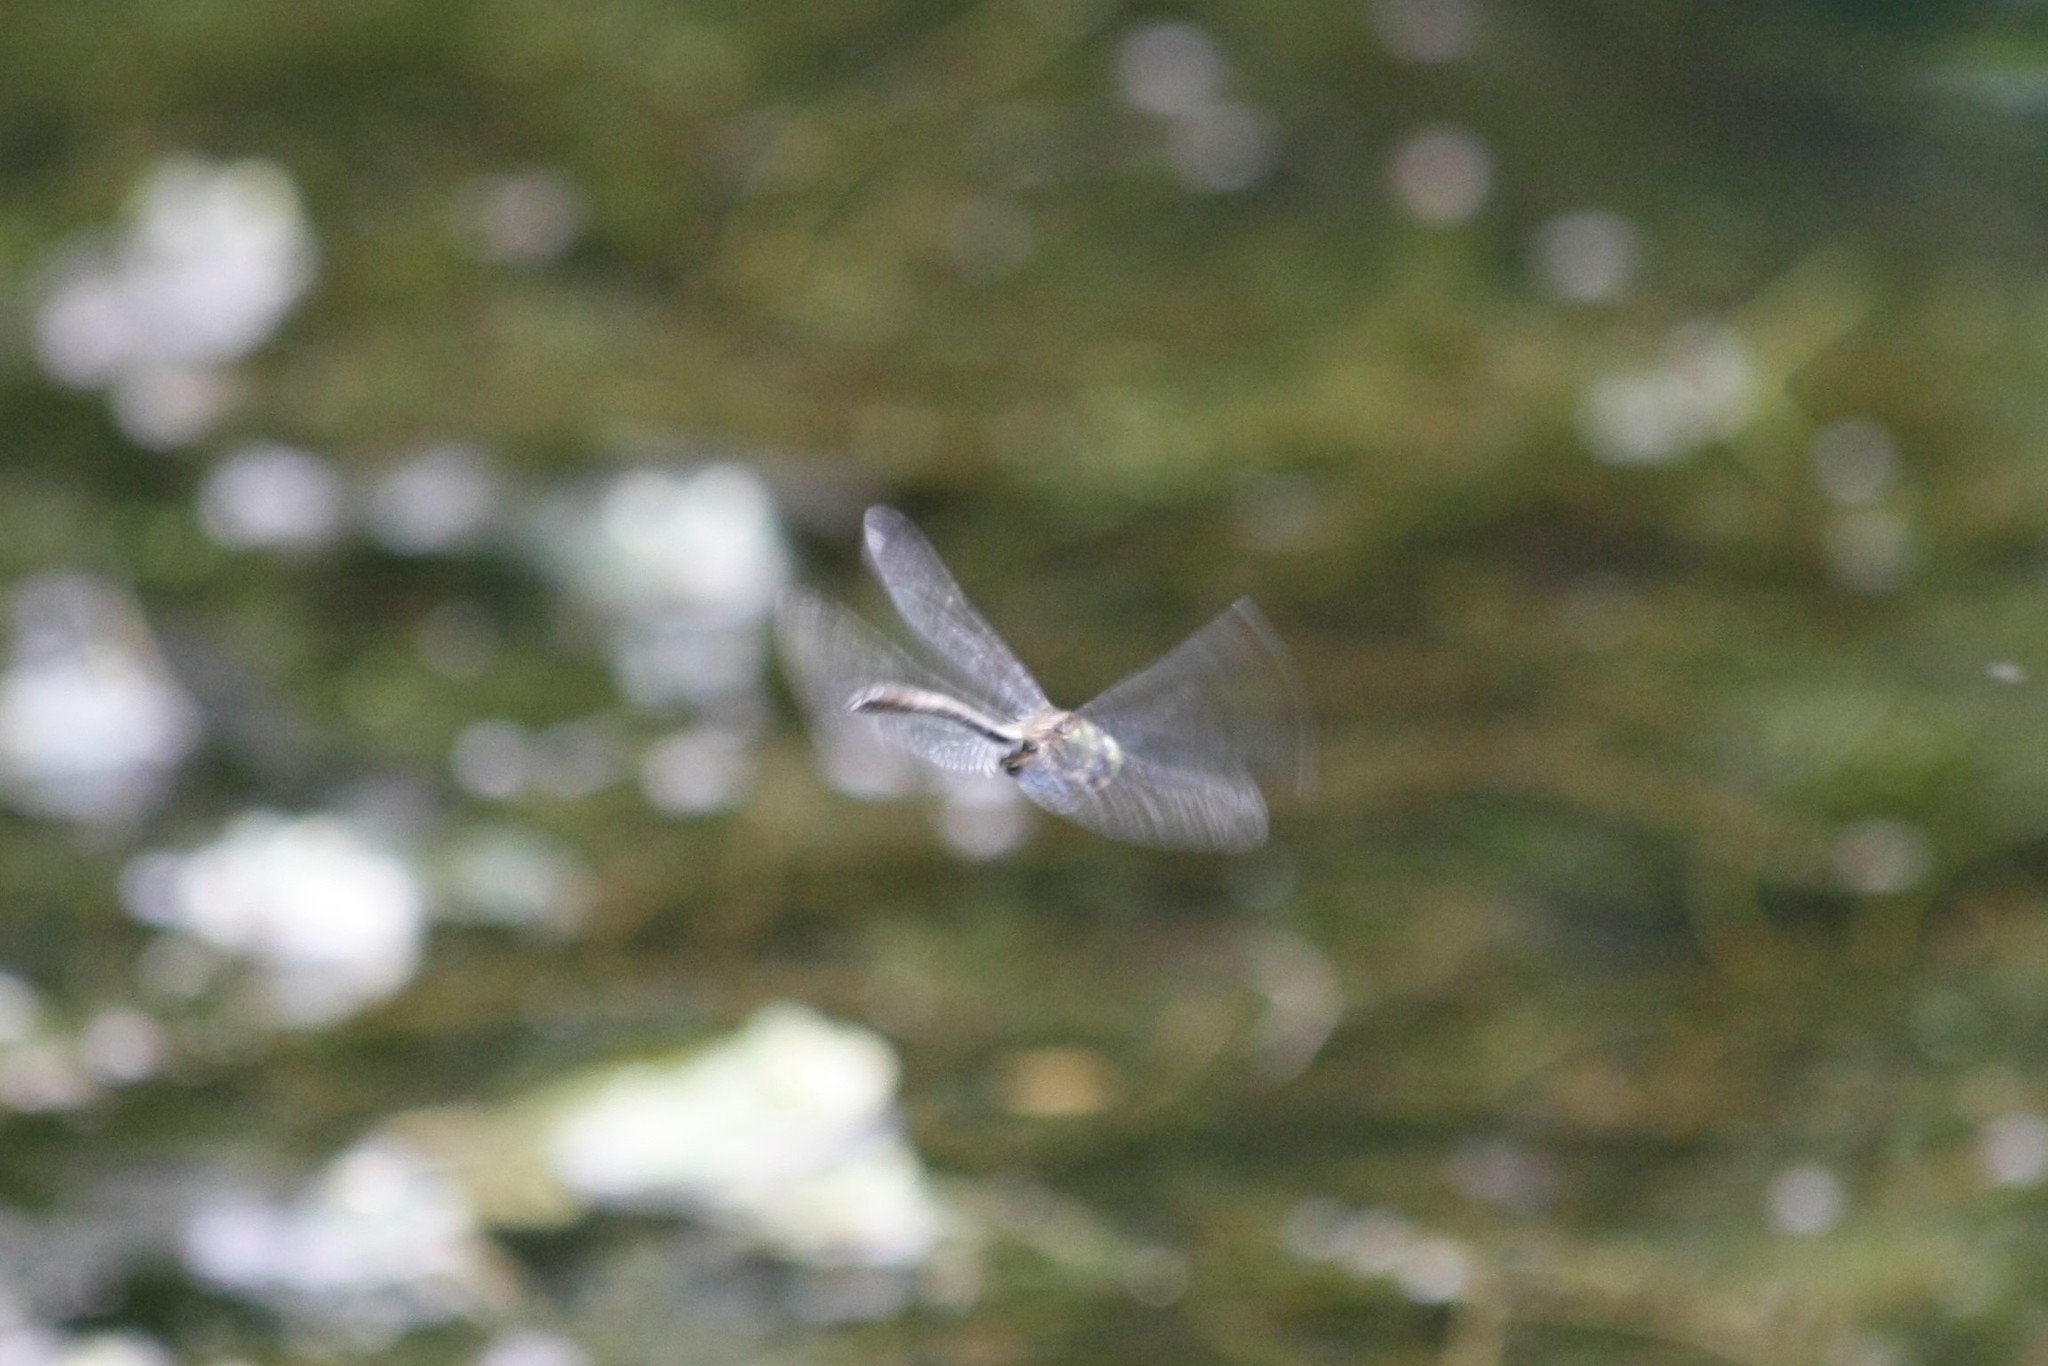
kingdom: Animalia
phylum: Arthropoda
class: Insecta
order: Odonata
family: Corduliidae
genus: Cordulia
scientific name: Cordulia aenea
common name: Downy emerald
